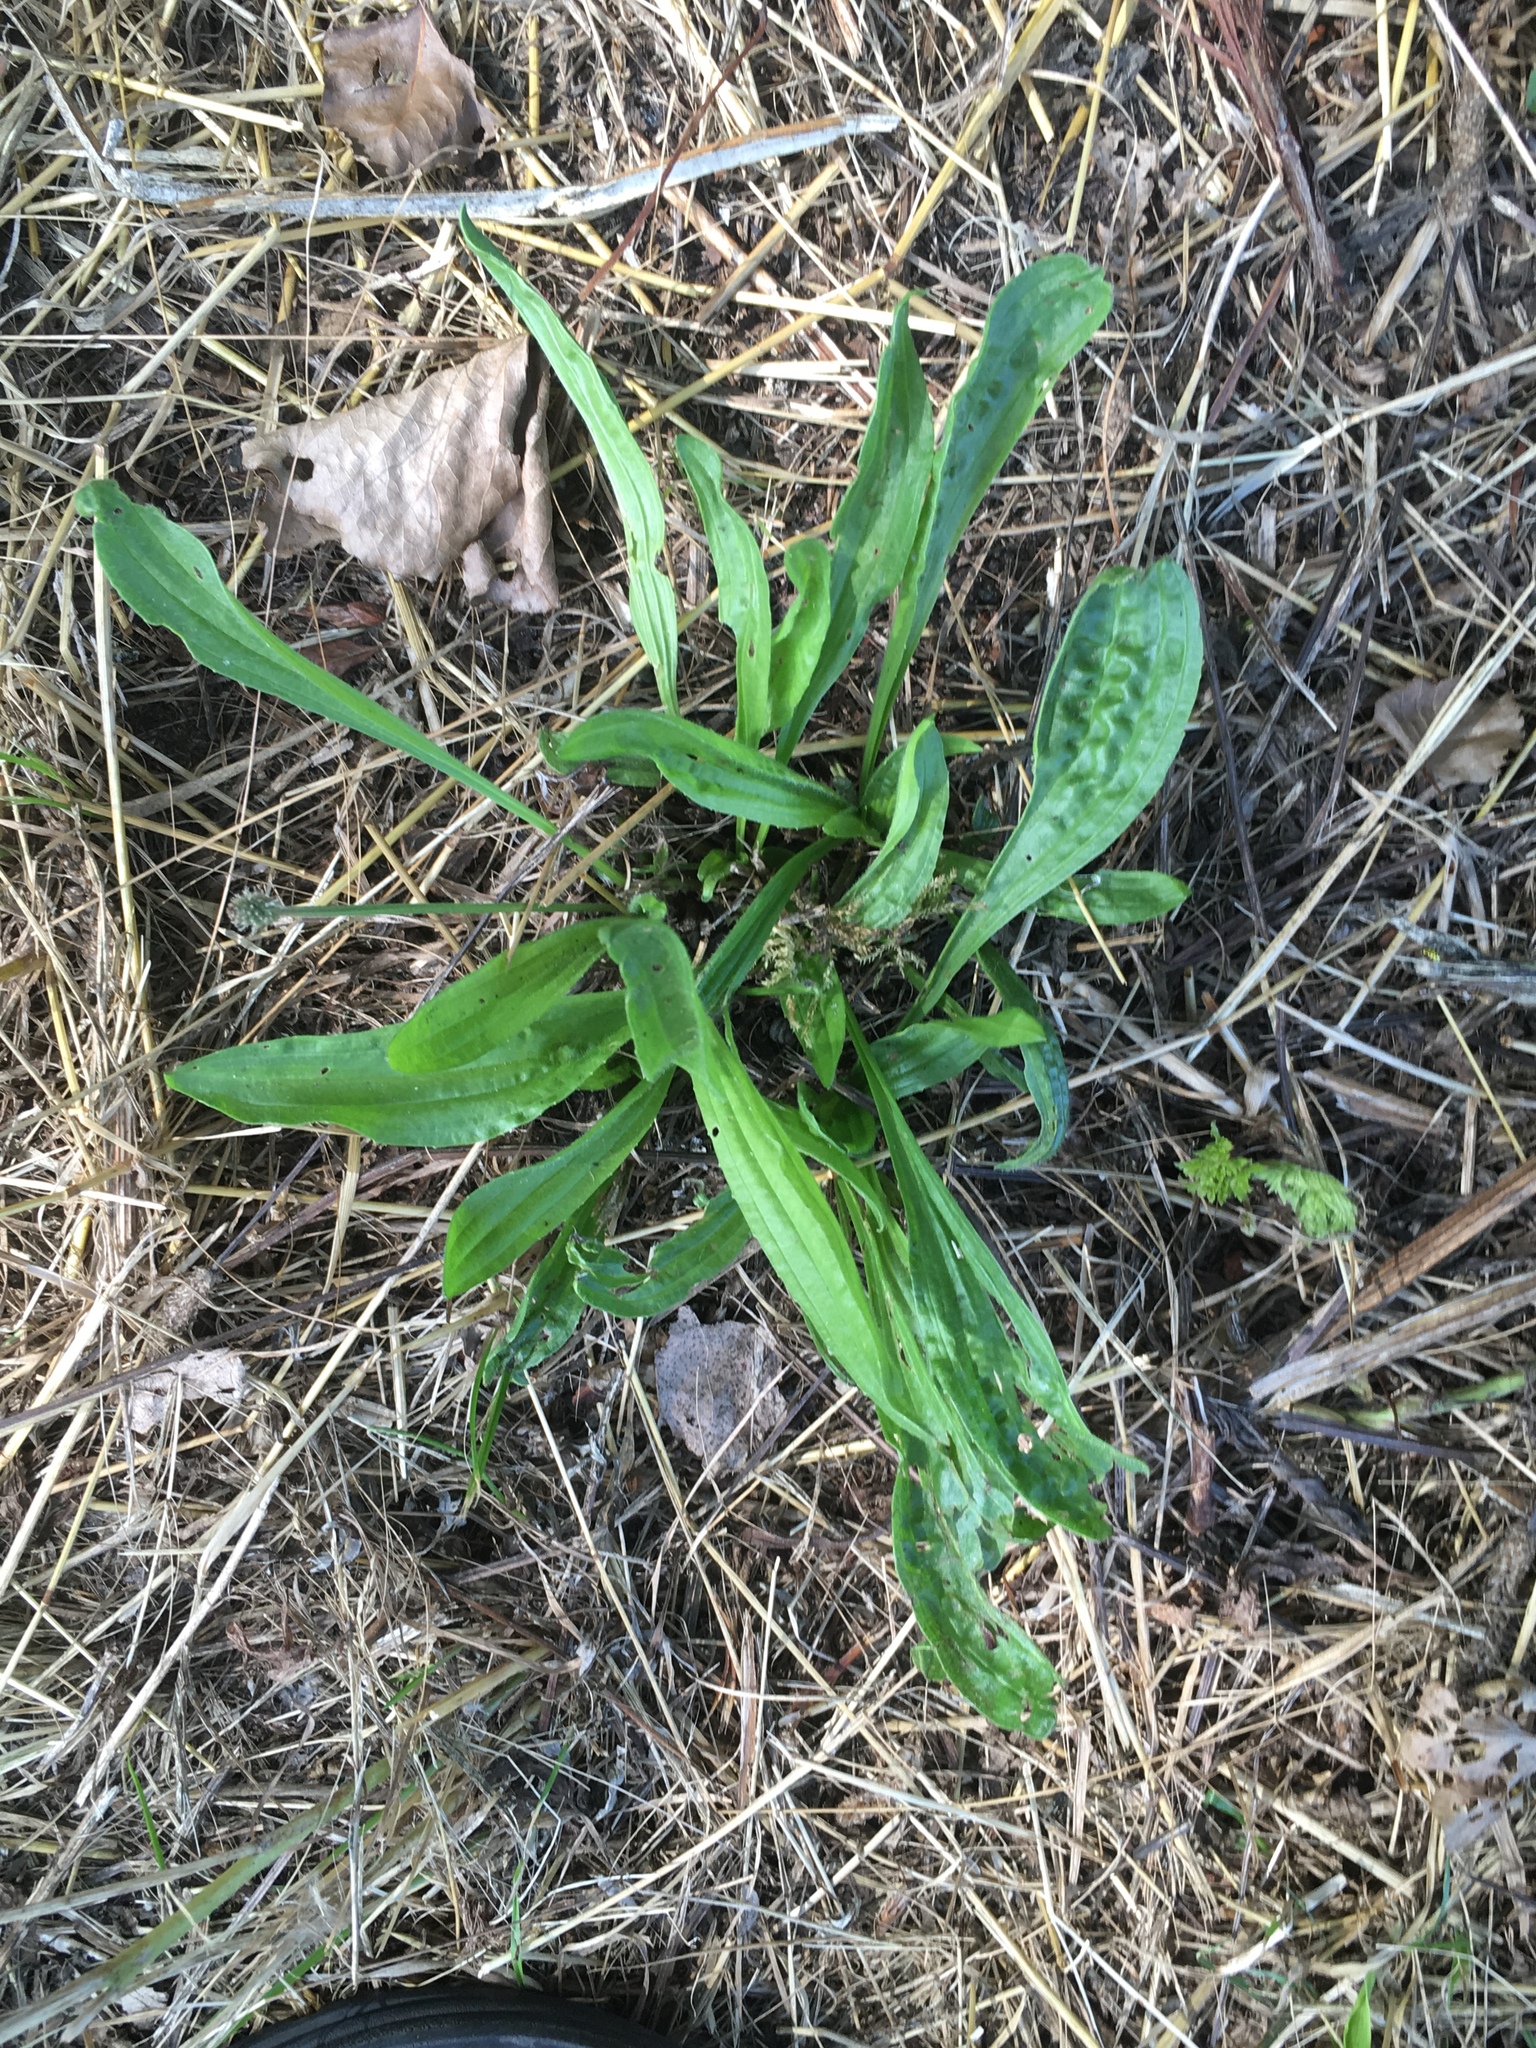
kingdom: Plantae
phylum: Tracheophyta
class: Magnoliopsida
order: Lamiales
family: Plantaginaceae
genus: Plantago
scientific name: Plantago lanceolata
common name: Ribwort plantain
